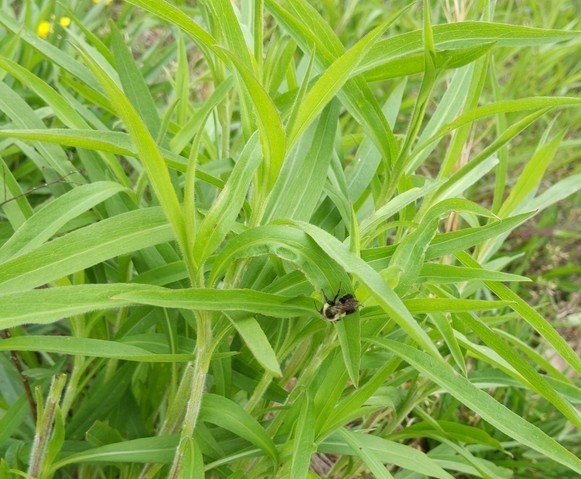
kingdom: Animalia
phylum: Arthropoda
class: Insecta
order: Hymenoptera
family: Apidae
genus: Bombus
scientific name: Bombus impatiens
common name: Common eastern bumble bee
